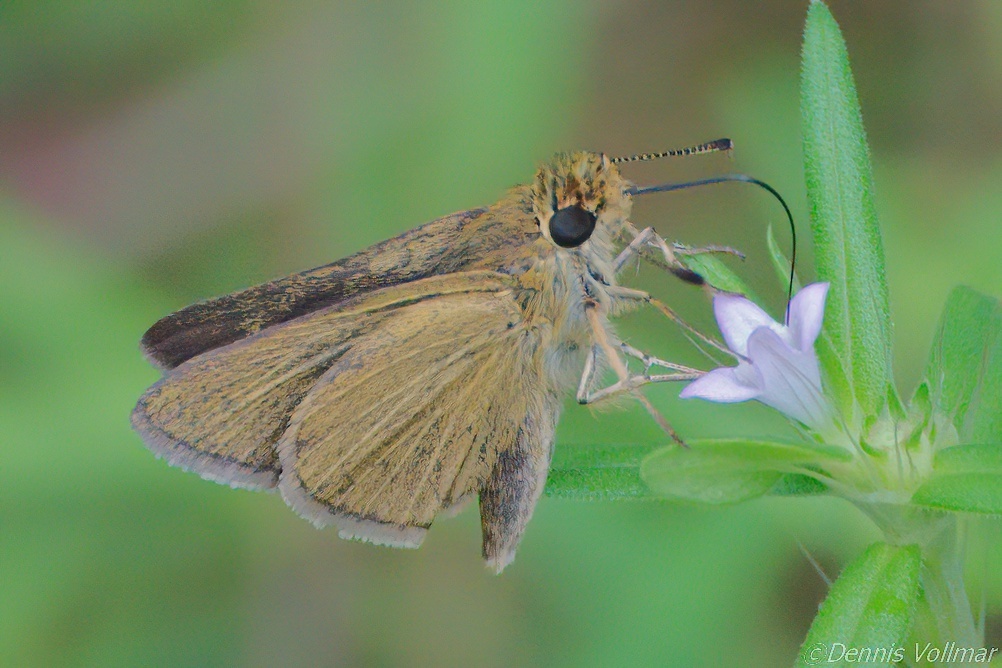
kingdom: Animalia
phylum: Arthropoda
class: Insecta
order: Lepidoptera
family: Hesperiidae
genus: Nastra
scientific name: Nastra lherminier
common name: Swarthy skipper
